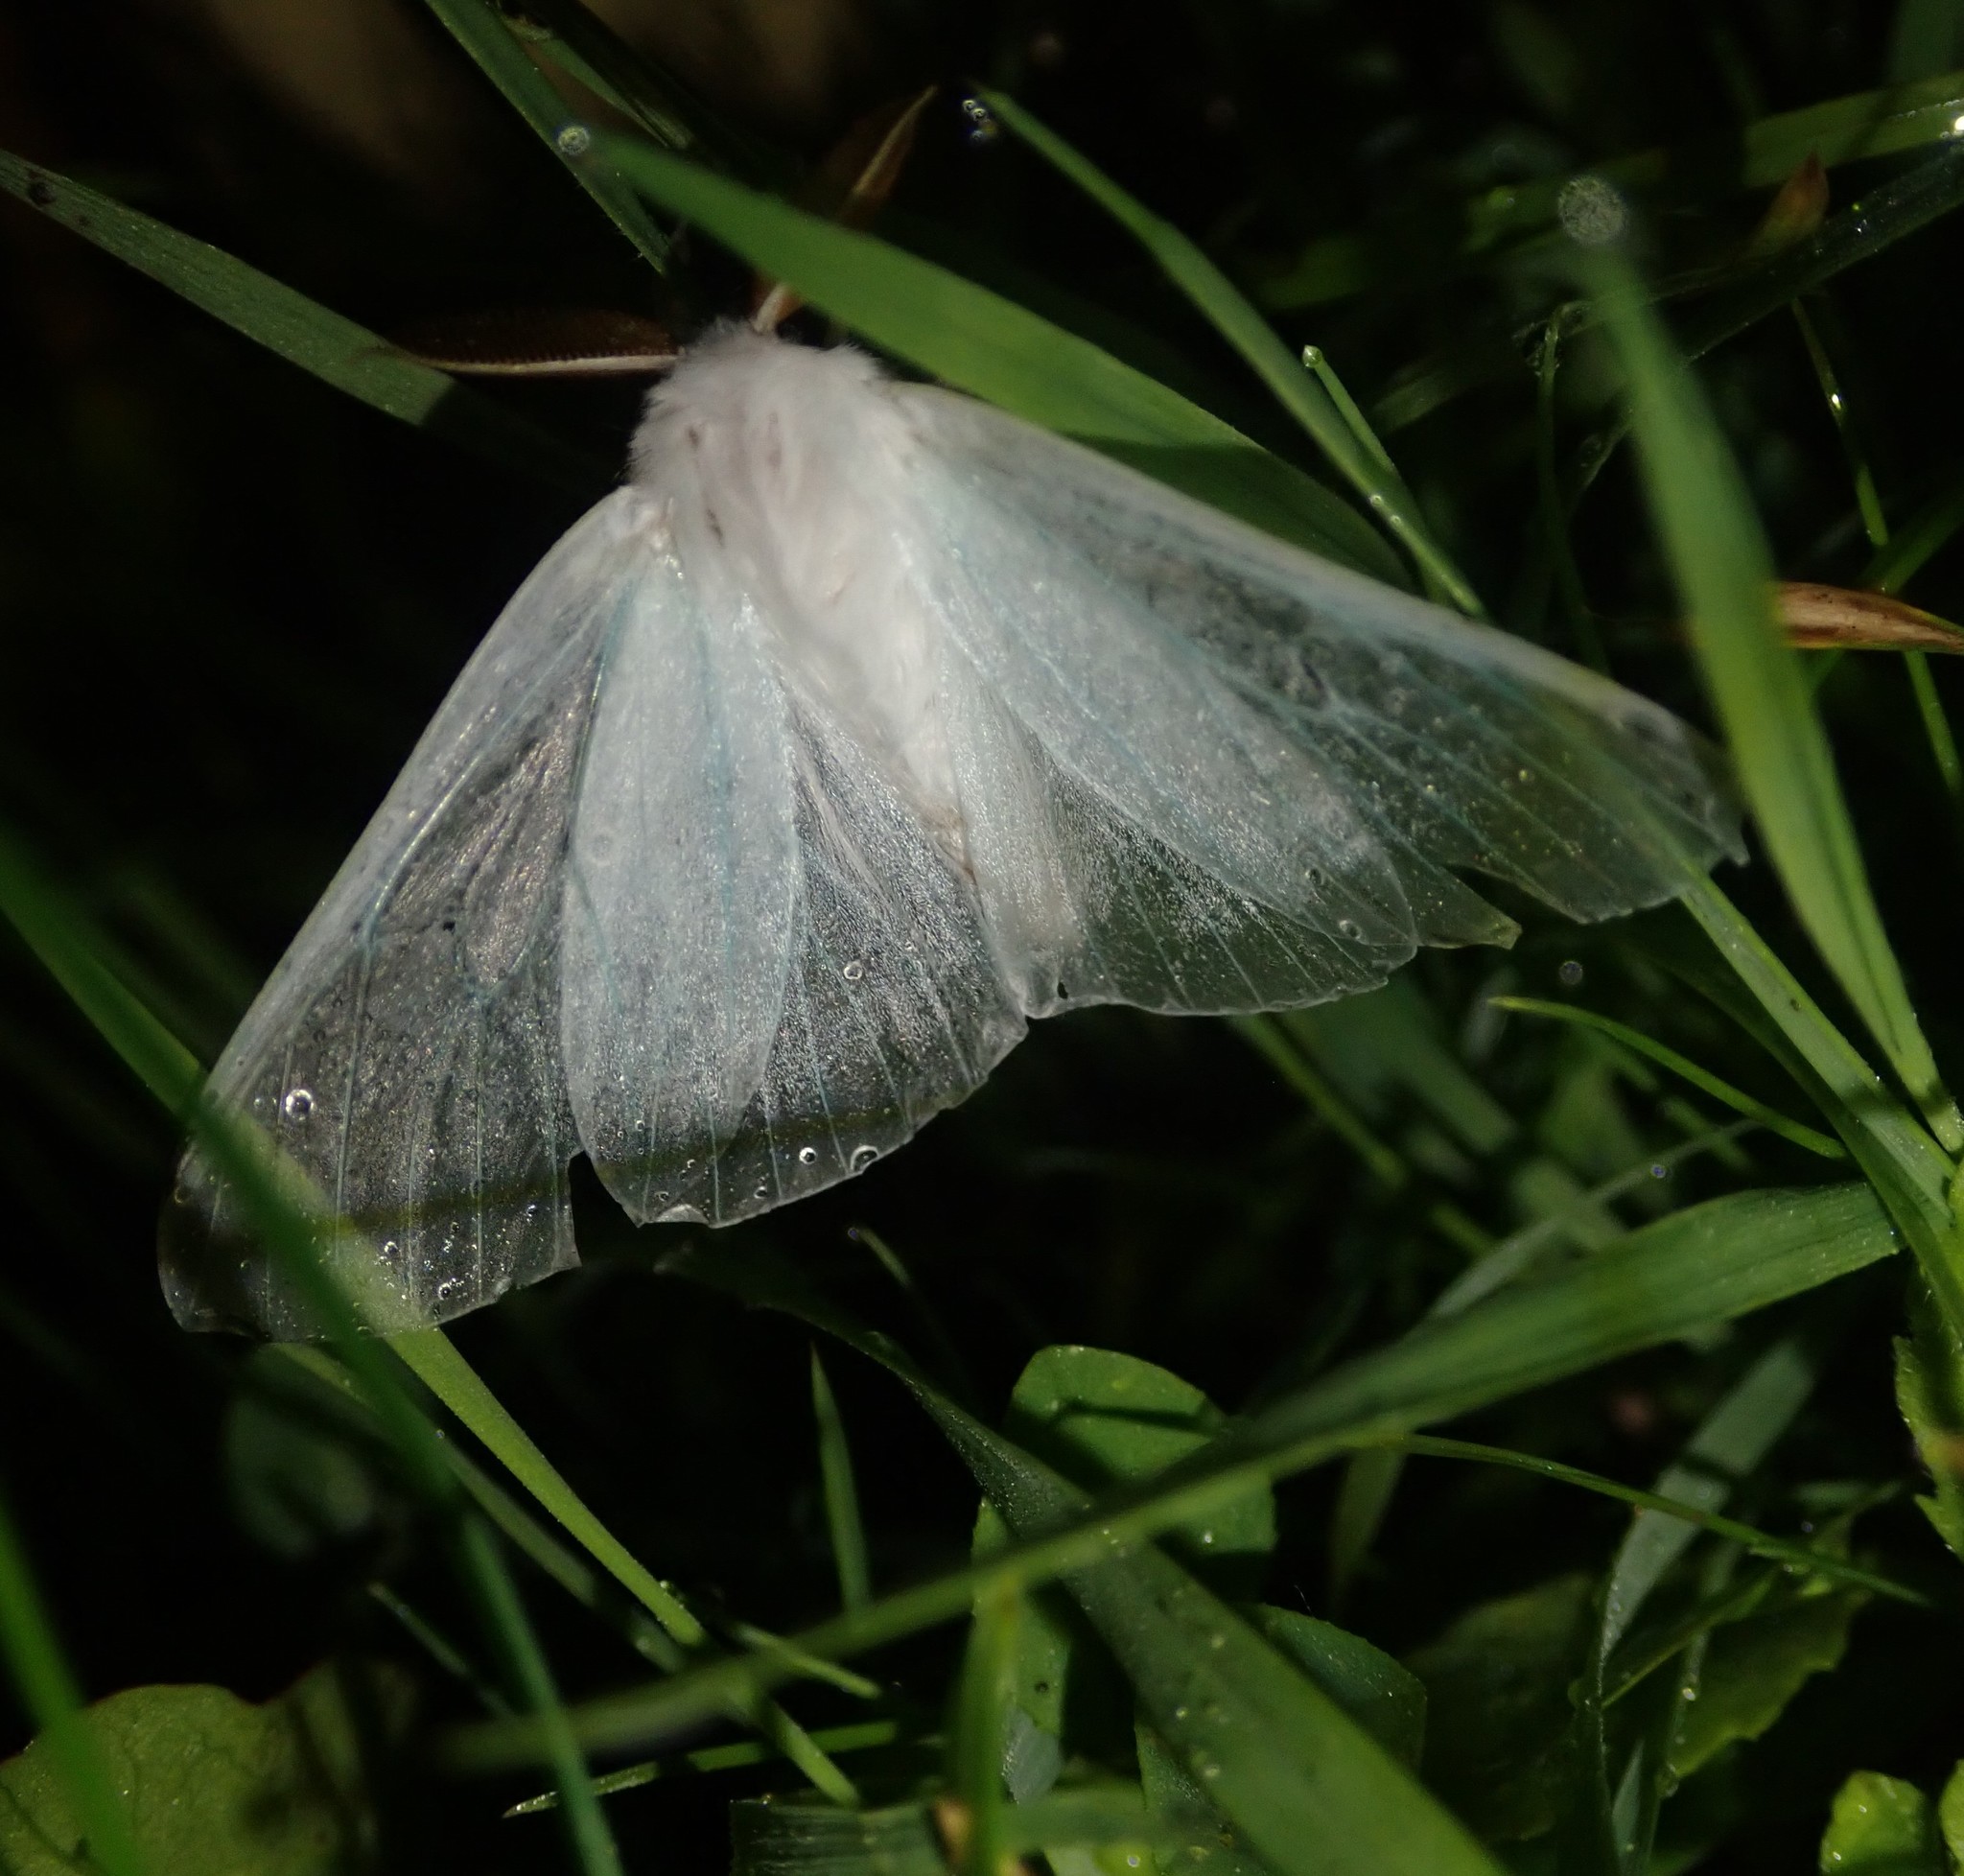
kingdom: Animalia
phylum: Arthropoda
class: Insecta
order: Lepidoptera
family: Erebidae
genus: Arctornis
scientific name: Arctornis l-nigrum
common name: Black v moth
